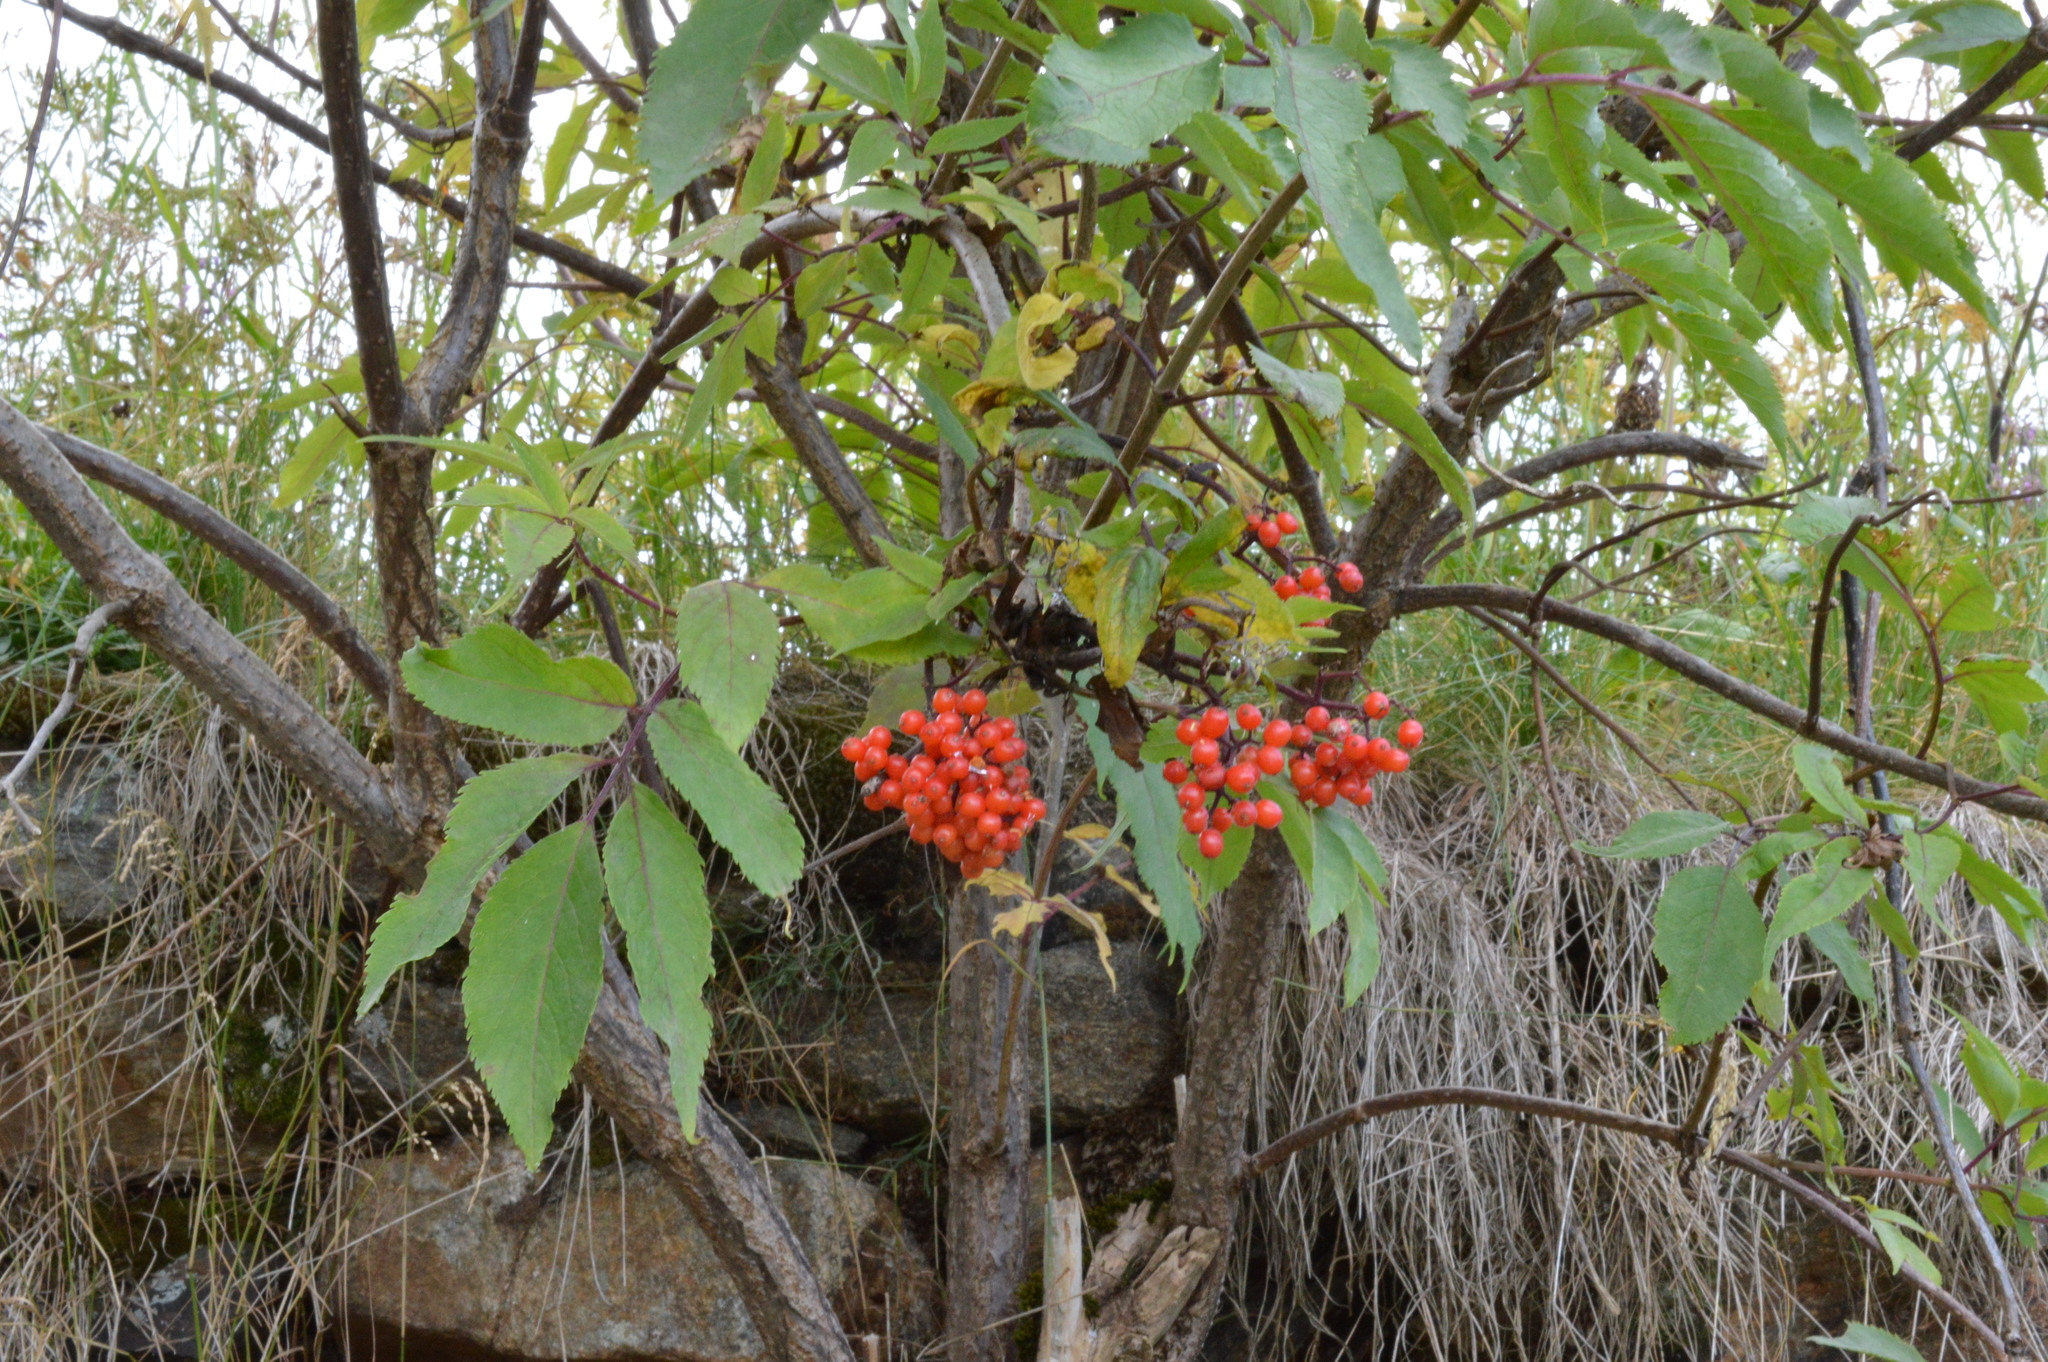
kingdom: Plantae
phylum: Tracheophyta
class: Magnoliopsida
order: Dipsacales
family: Viburnaceae
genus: Sambucus
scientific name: Sambucus racemosa
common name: Red-berried elder
